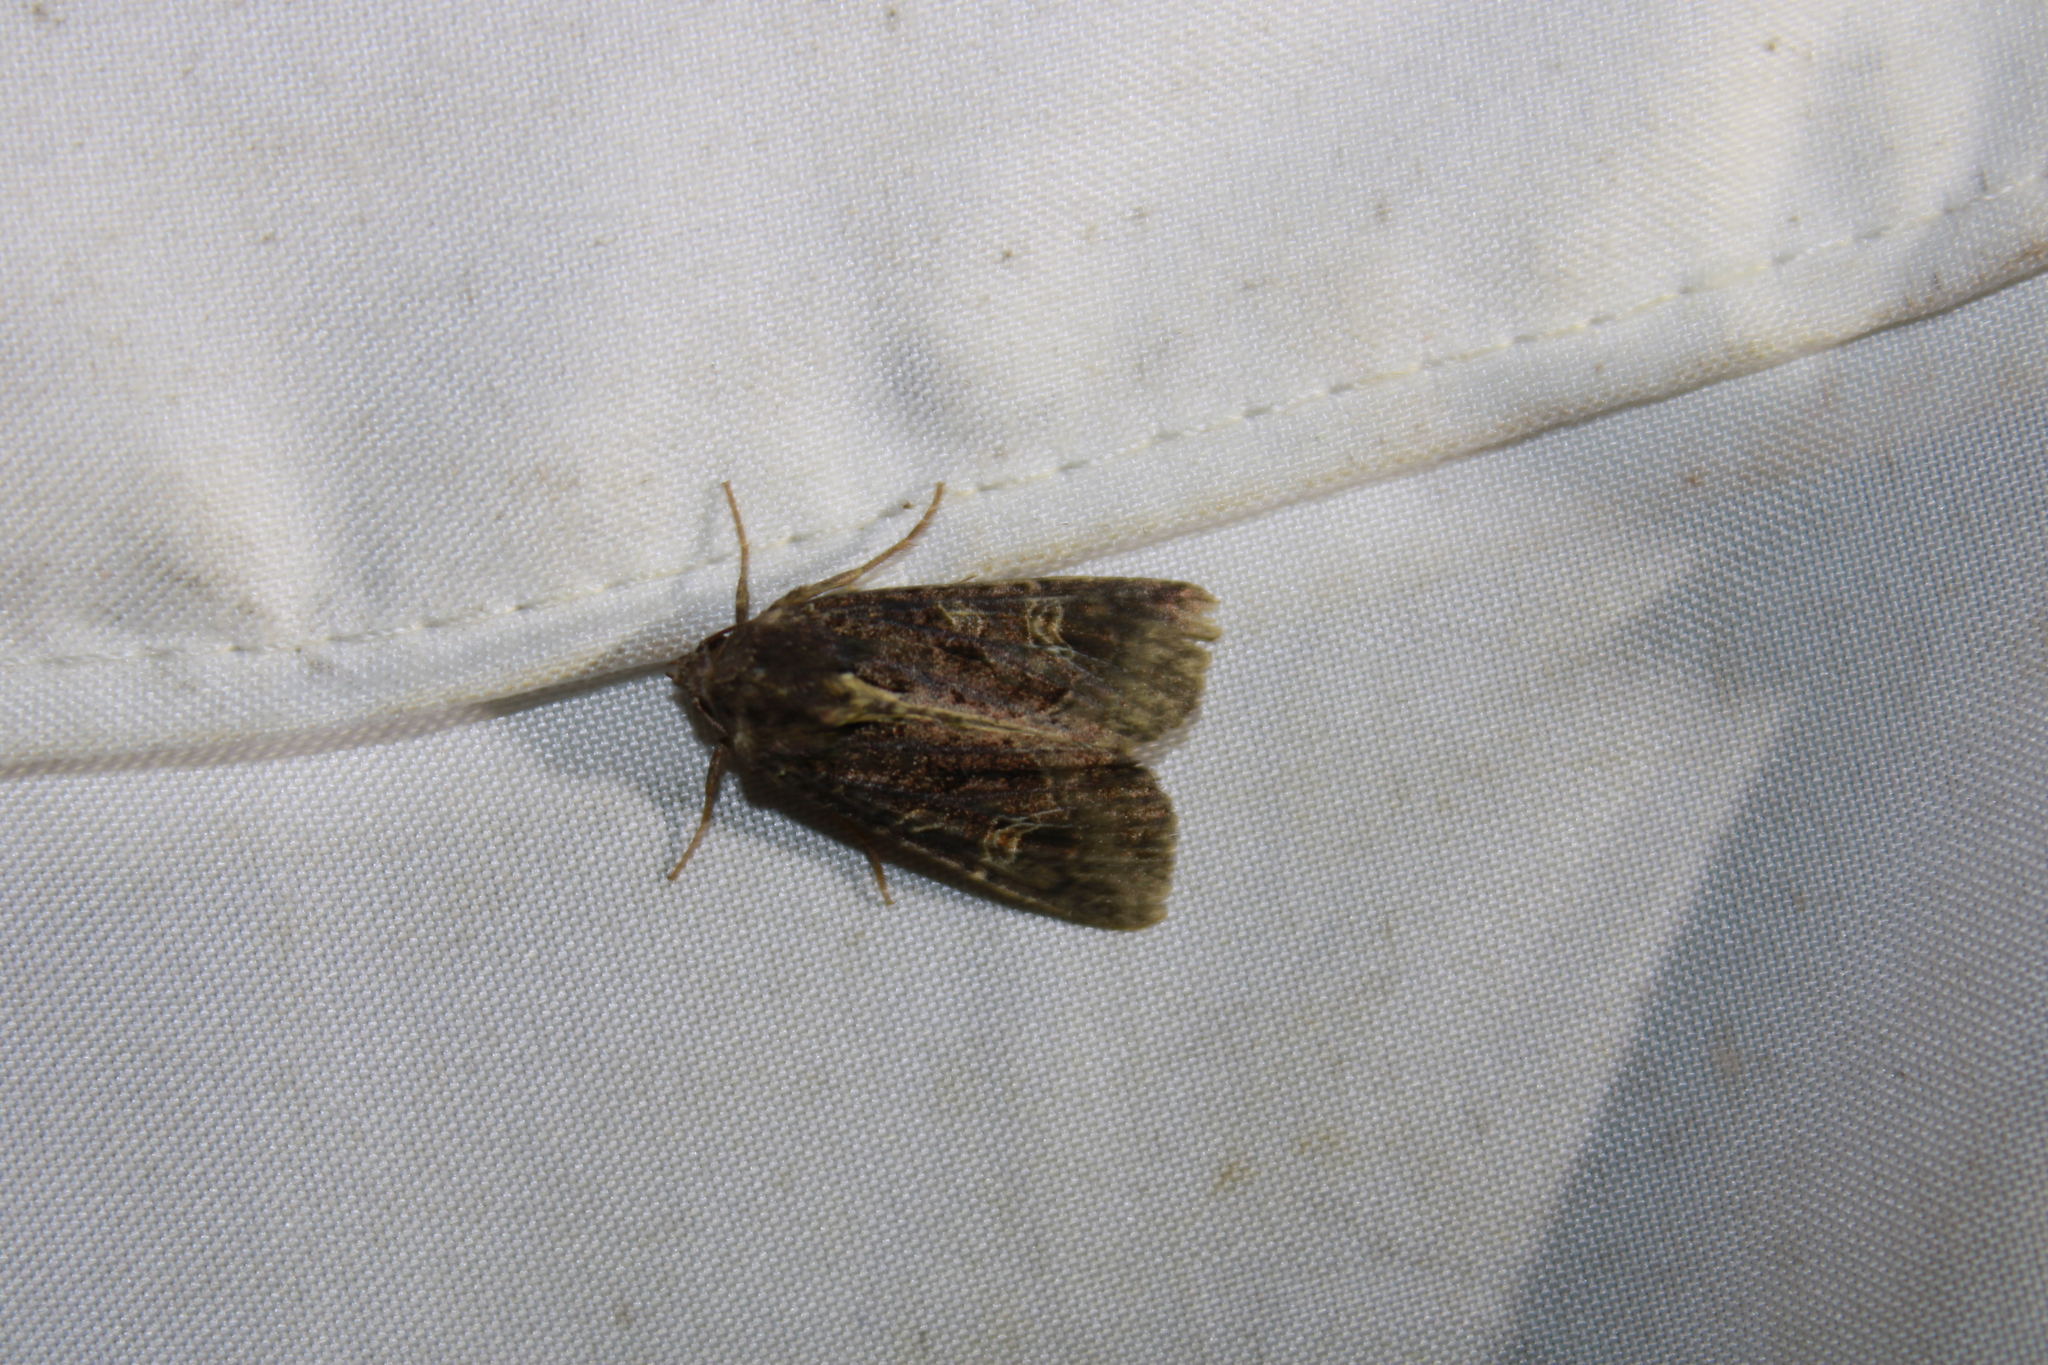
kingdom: Animalia
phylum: Arthropoda
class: Insecta
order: Lepidoptera
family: Noctuidae
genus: Helotropha
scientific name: Helotropha reniformis
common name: Kidney-spotted rustic moth
